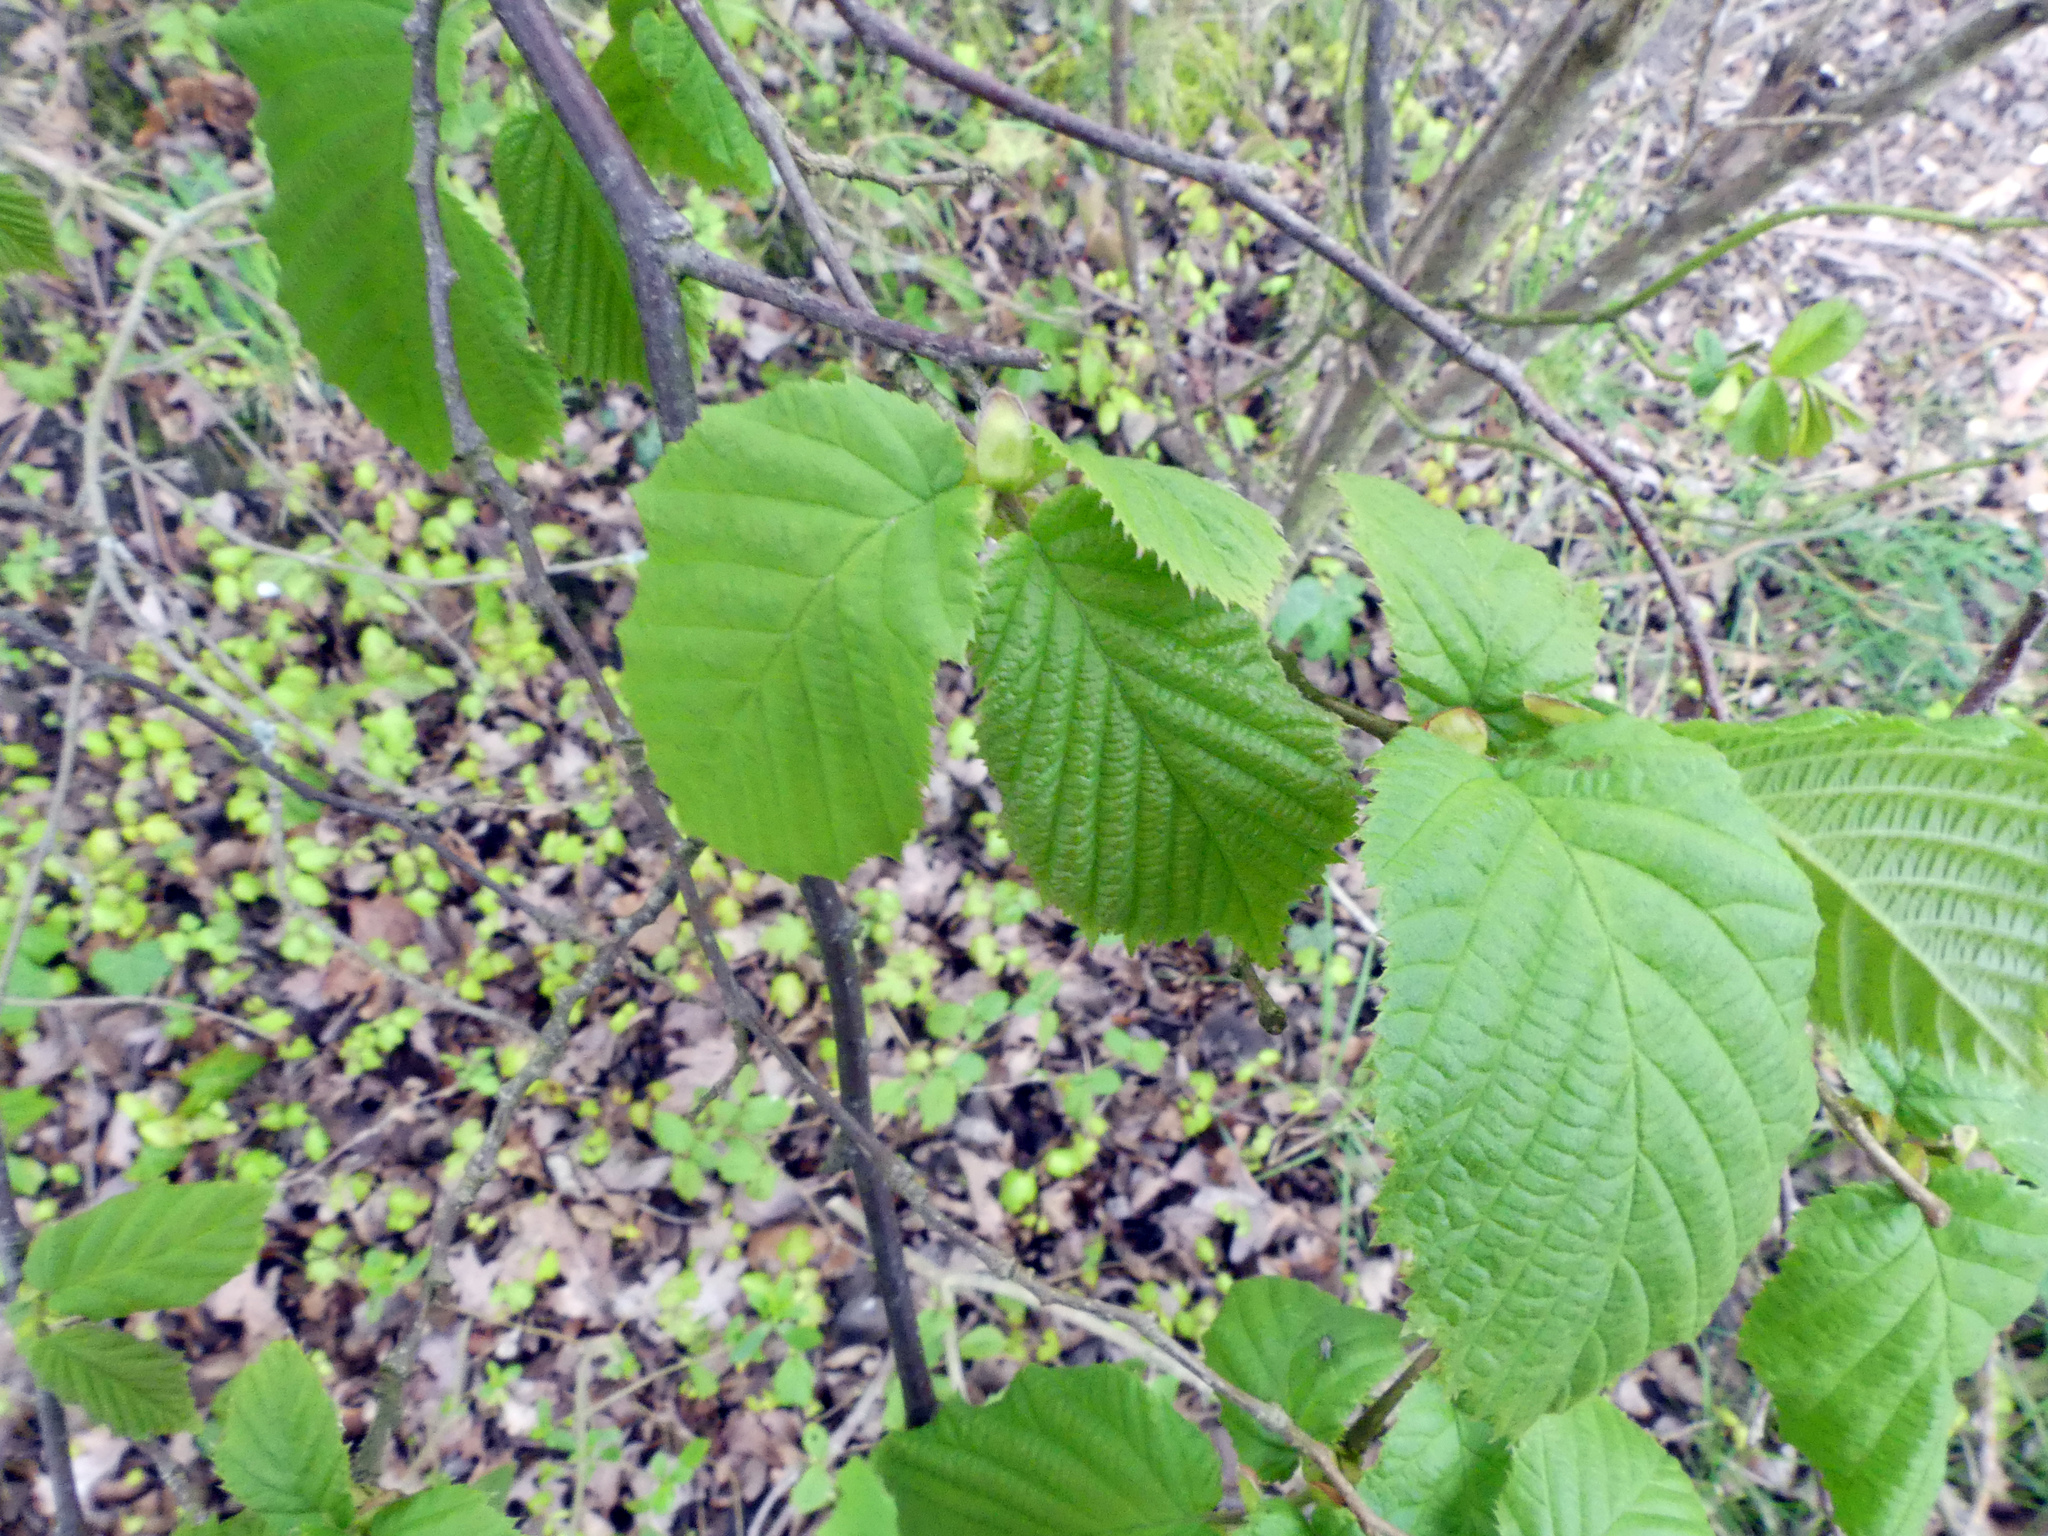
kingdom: Plantae
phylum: Tracheophyta
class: Magnoliopsida
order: Fagales
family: Betulaceae
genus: Corylus
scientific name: Corylus avellana
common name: European hazel
